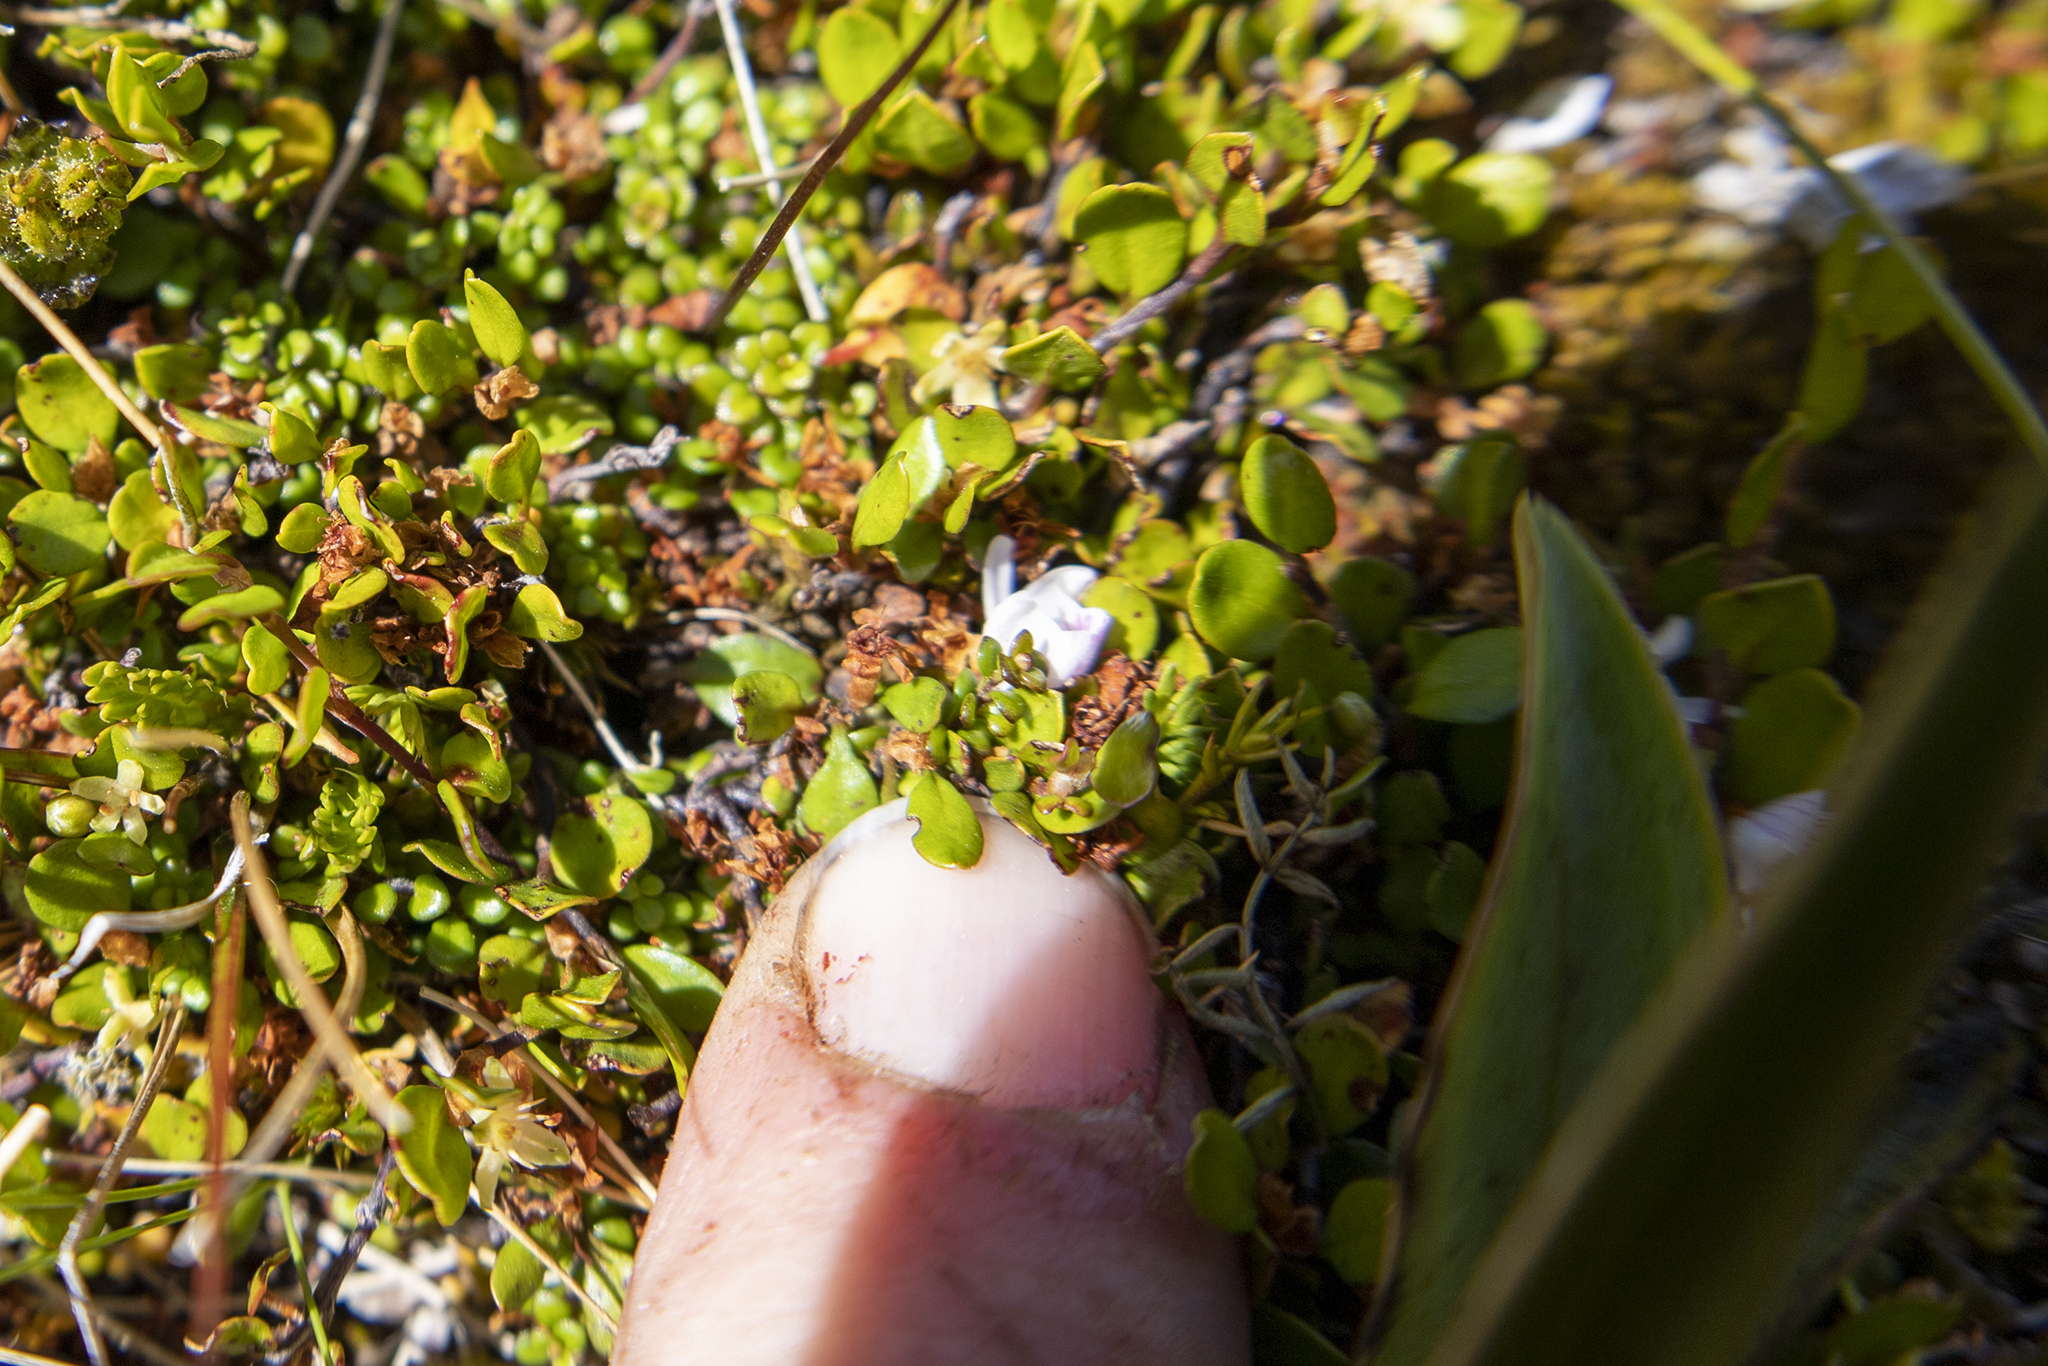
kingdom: Plantae
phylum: Tracheophyta
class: Magnoliopsida
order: Lamiales
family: Plantaginaceae
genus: Veronica
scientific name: Veronica decora
